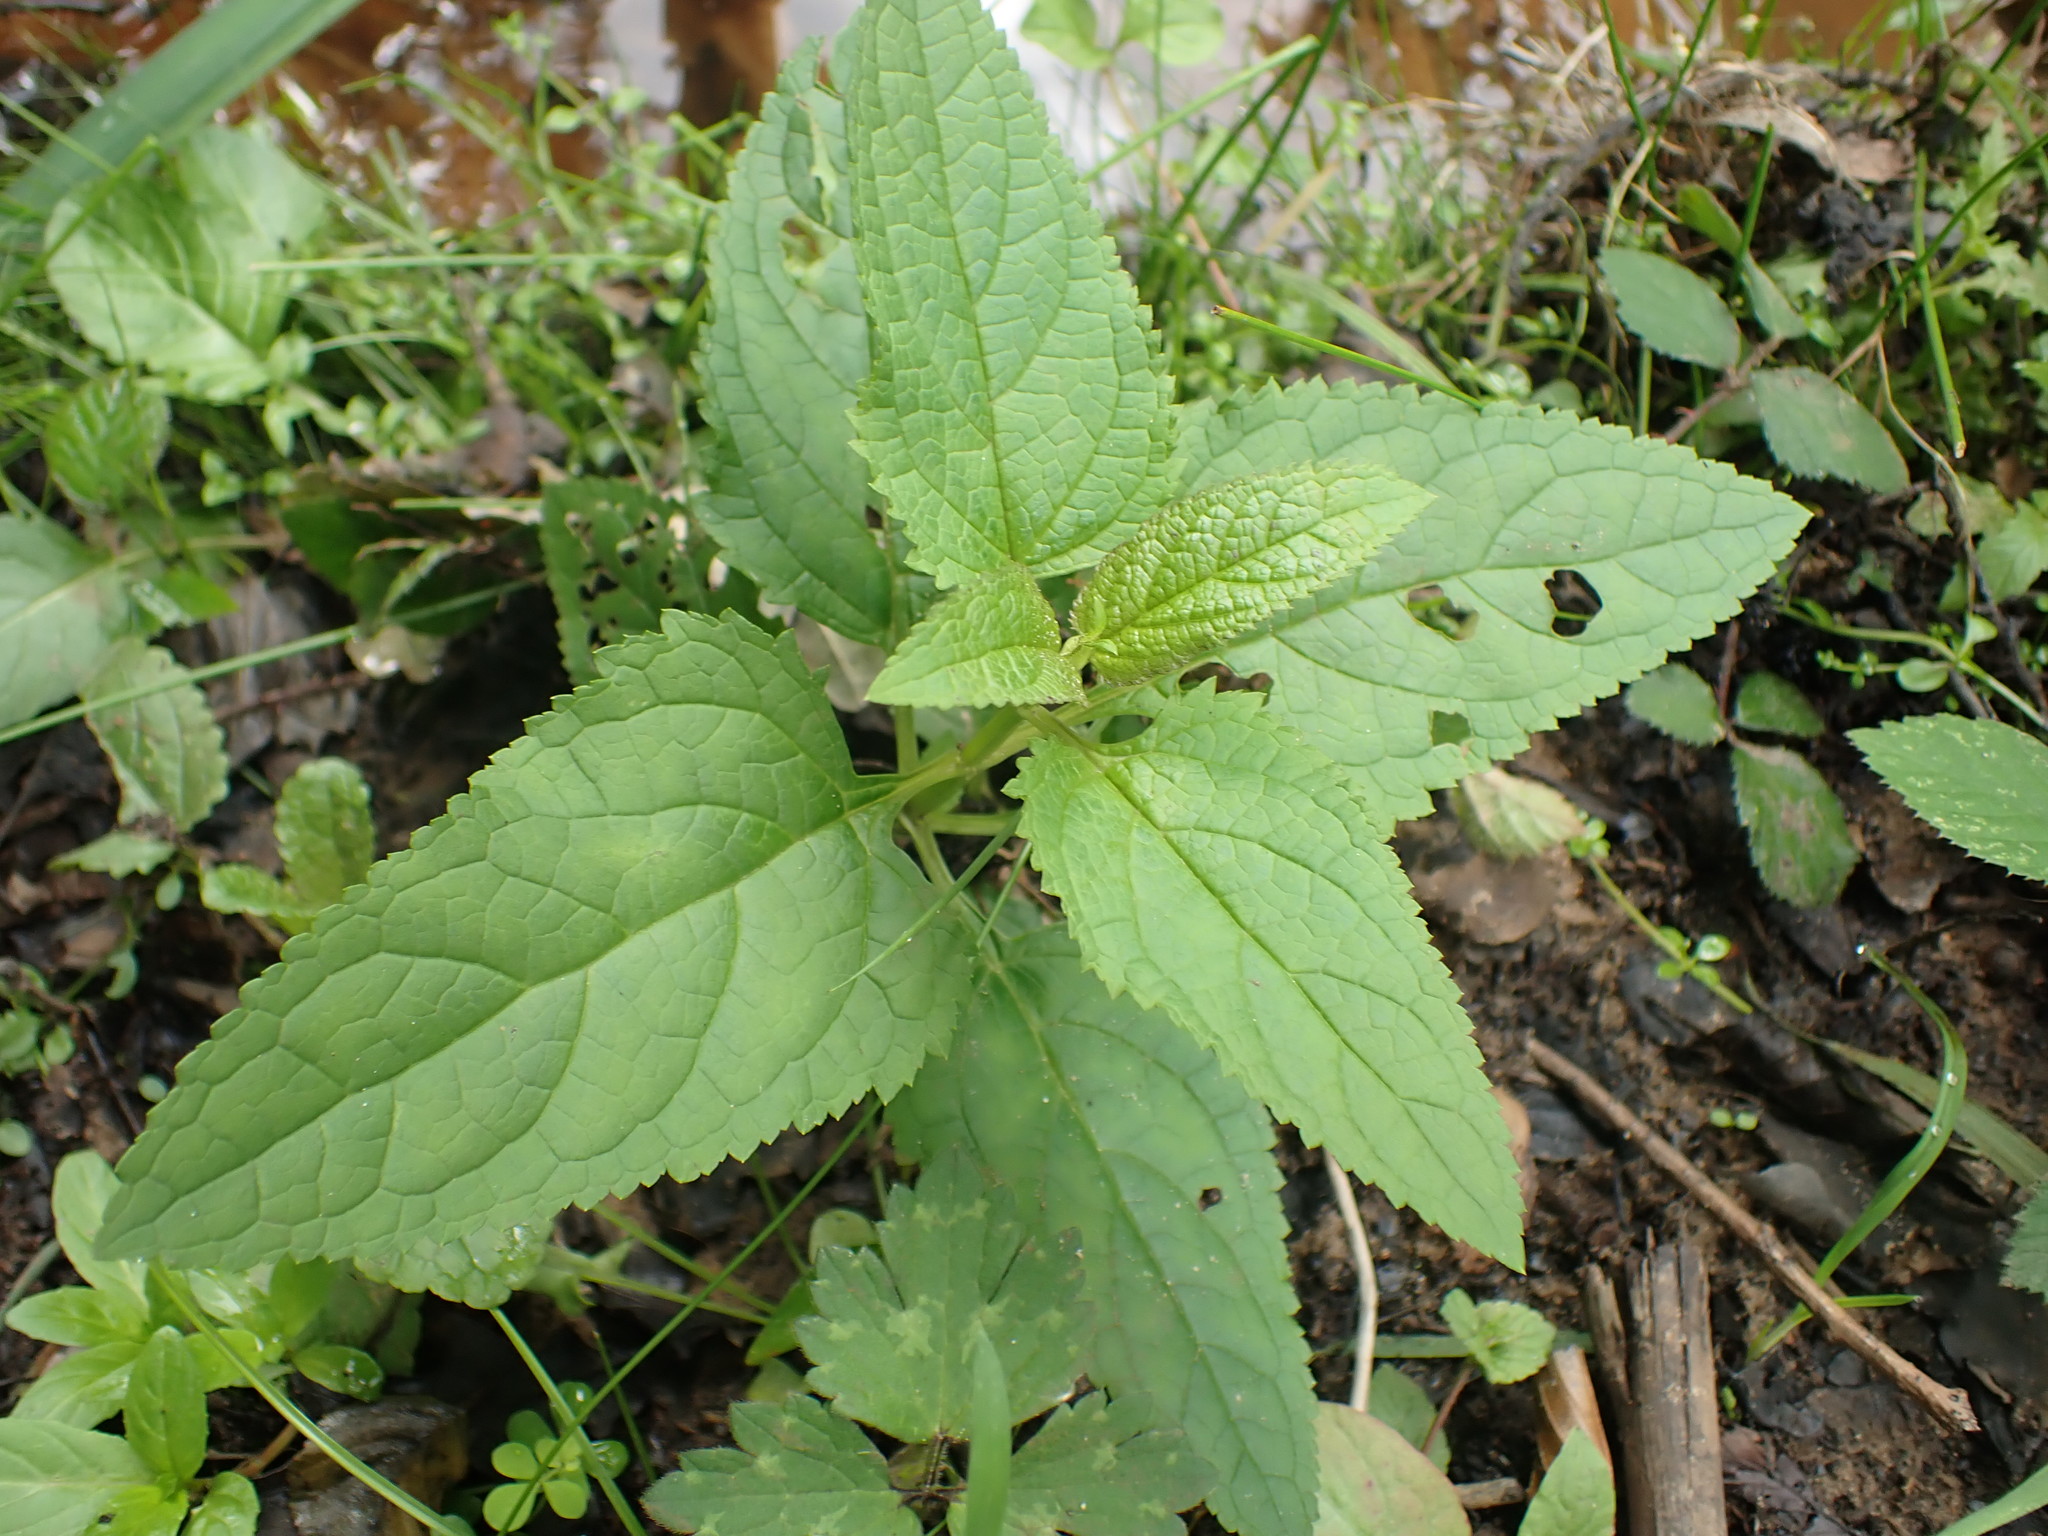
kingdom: Plantae
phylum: Tracheophyta
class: Magnoliopsida
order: Lamiales
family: Scrophulariaceae
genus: Scrophularia
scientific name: Scrophularia nodosa
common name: Common figwort
